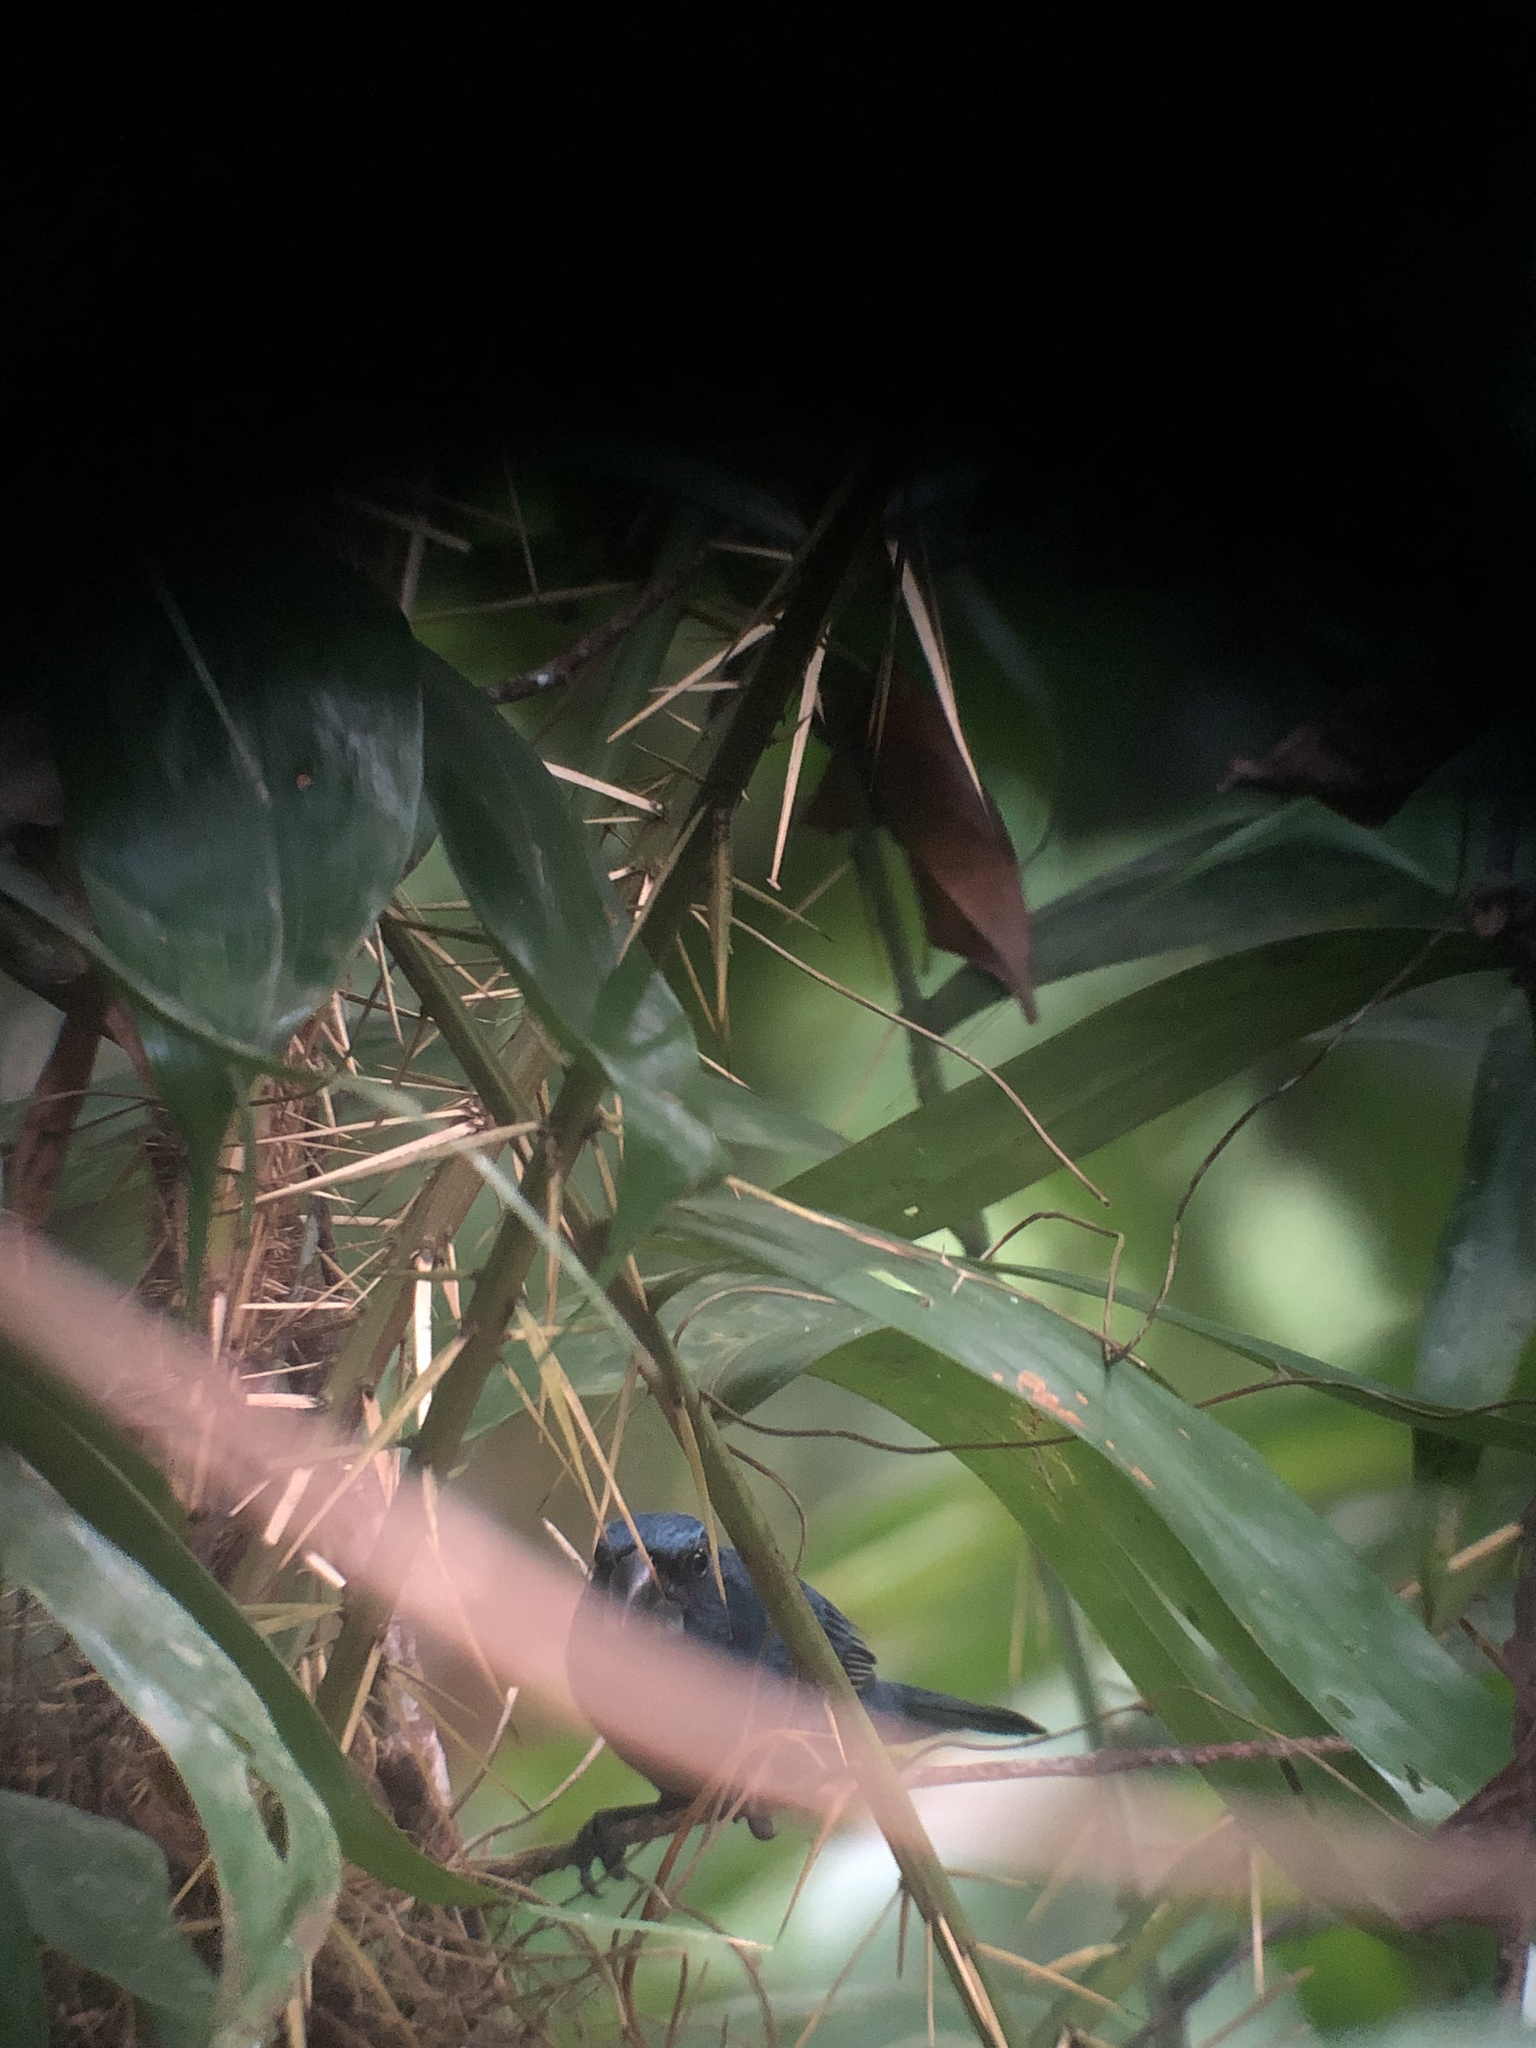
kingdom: Animalia
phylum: Chordata
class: Aves
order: Passeriformes
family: Cardinalidae
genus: Cyanocompsa
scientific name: Cyanocompsa cyanoides
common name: Blue-black grosbeak
